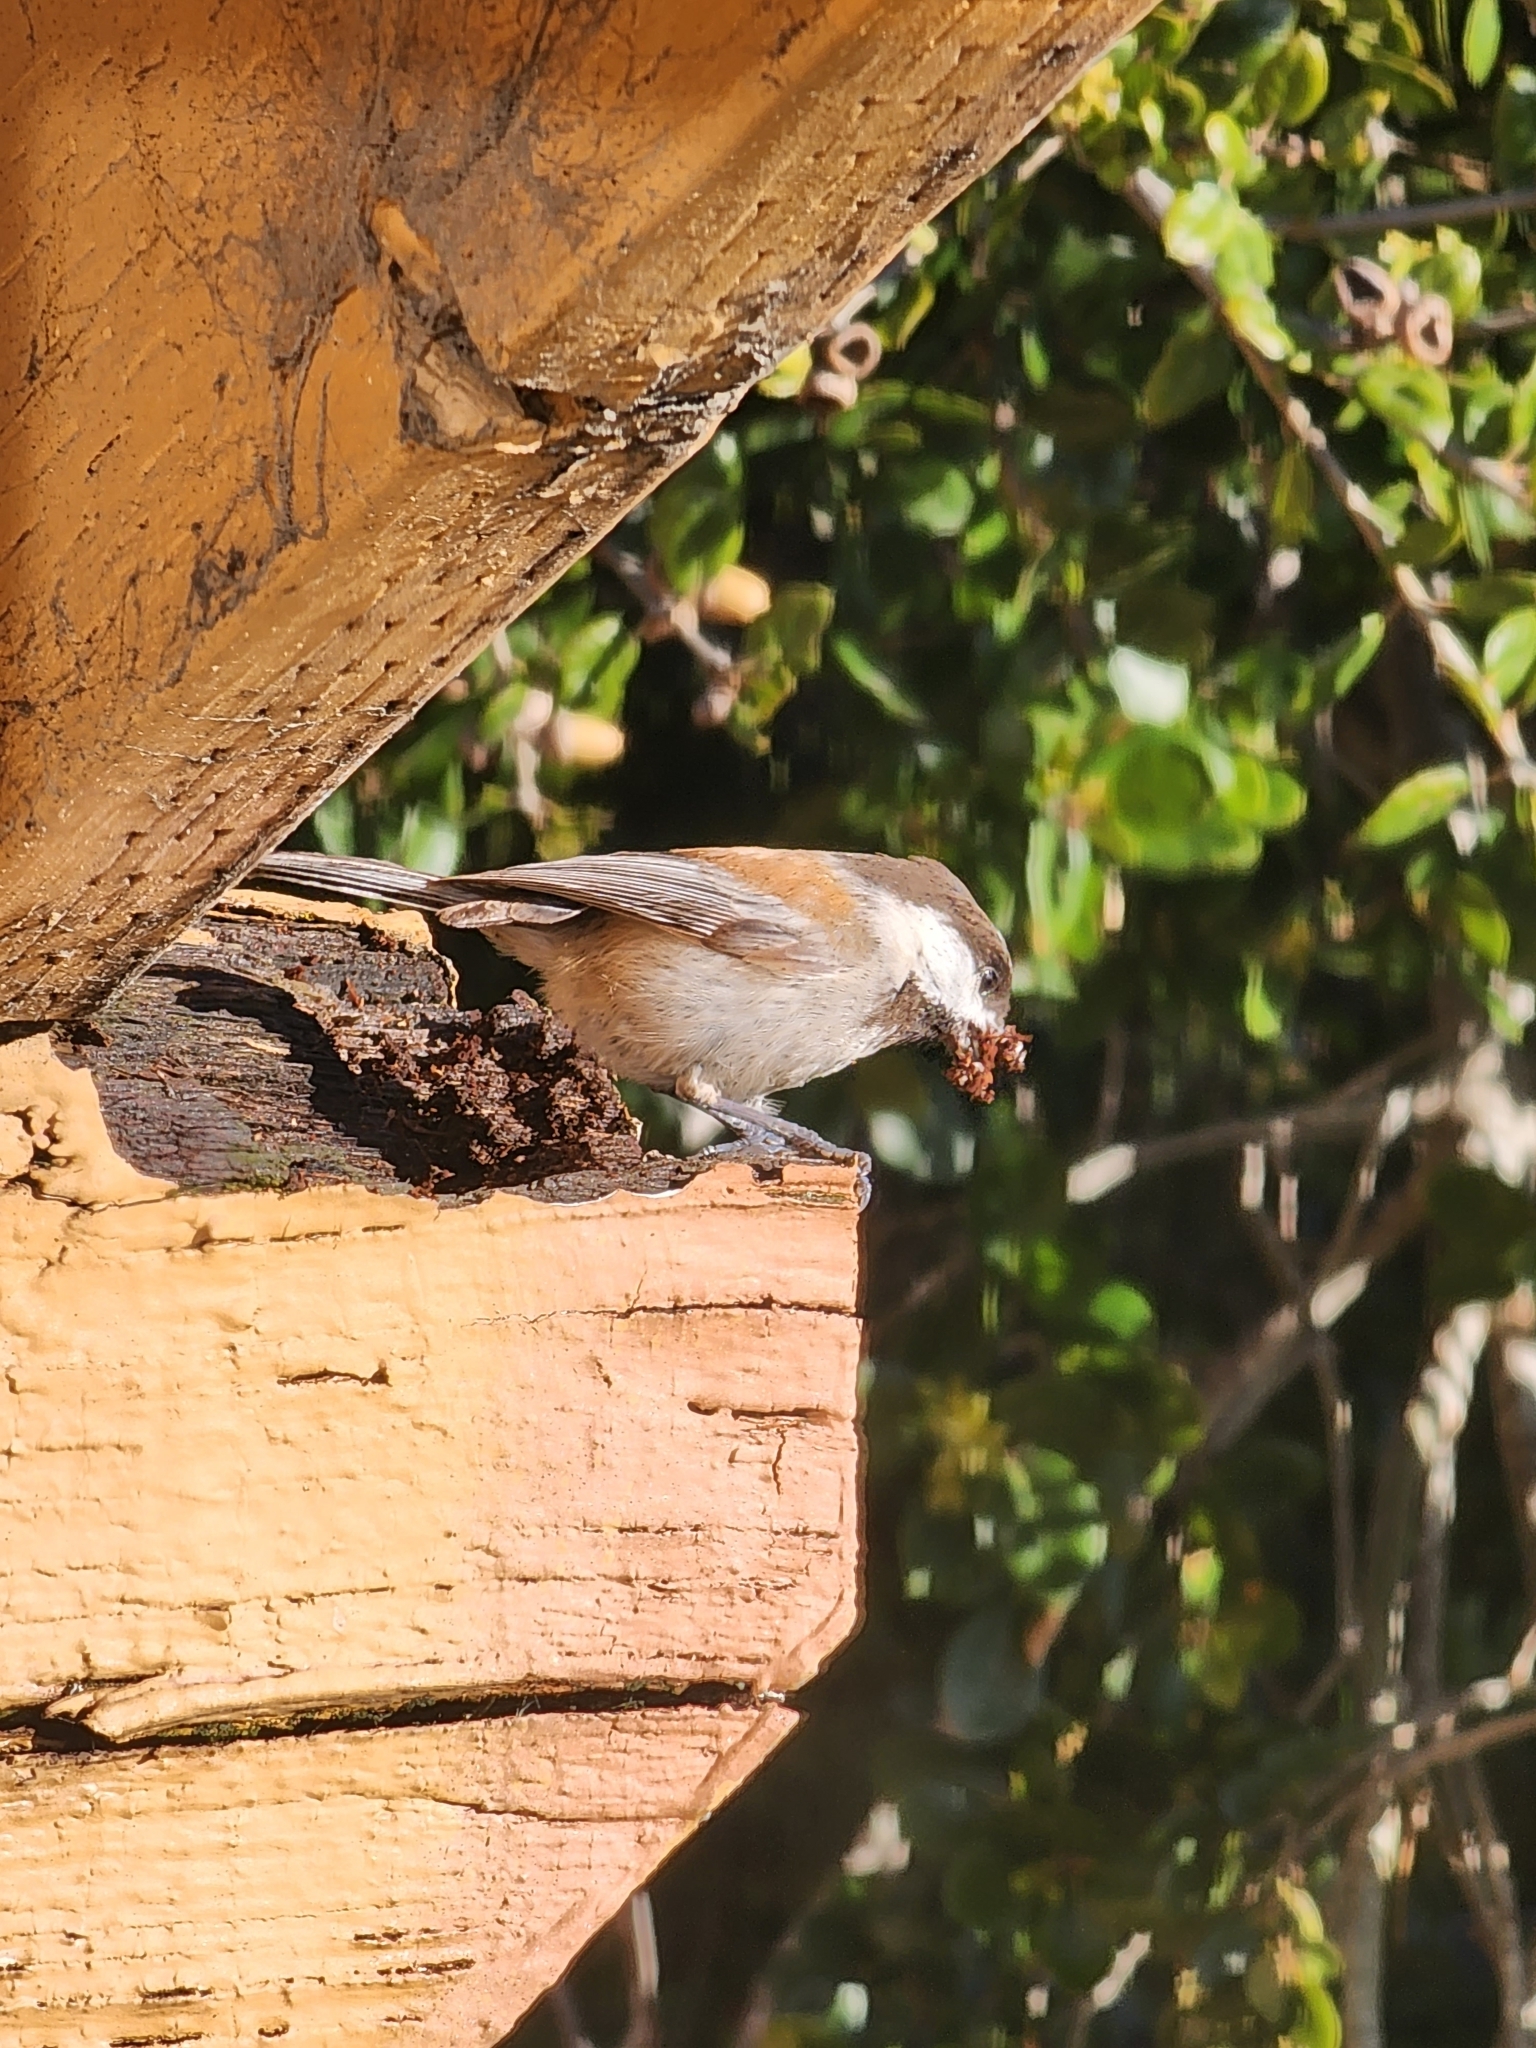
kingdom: Animalia
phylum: Chordata
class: Aves
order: Passeriformes
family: Paridae
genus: Poecile
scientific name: Poecile rufescens
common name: Chestnut-backed chickadee
